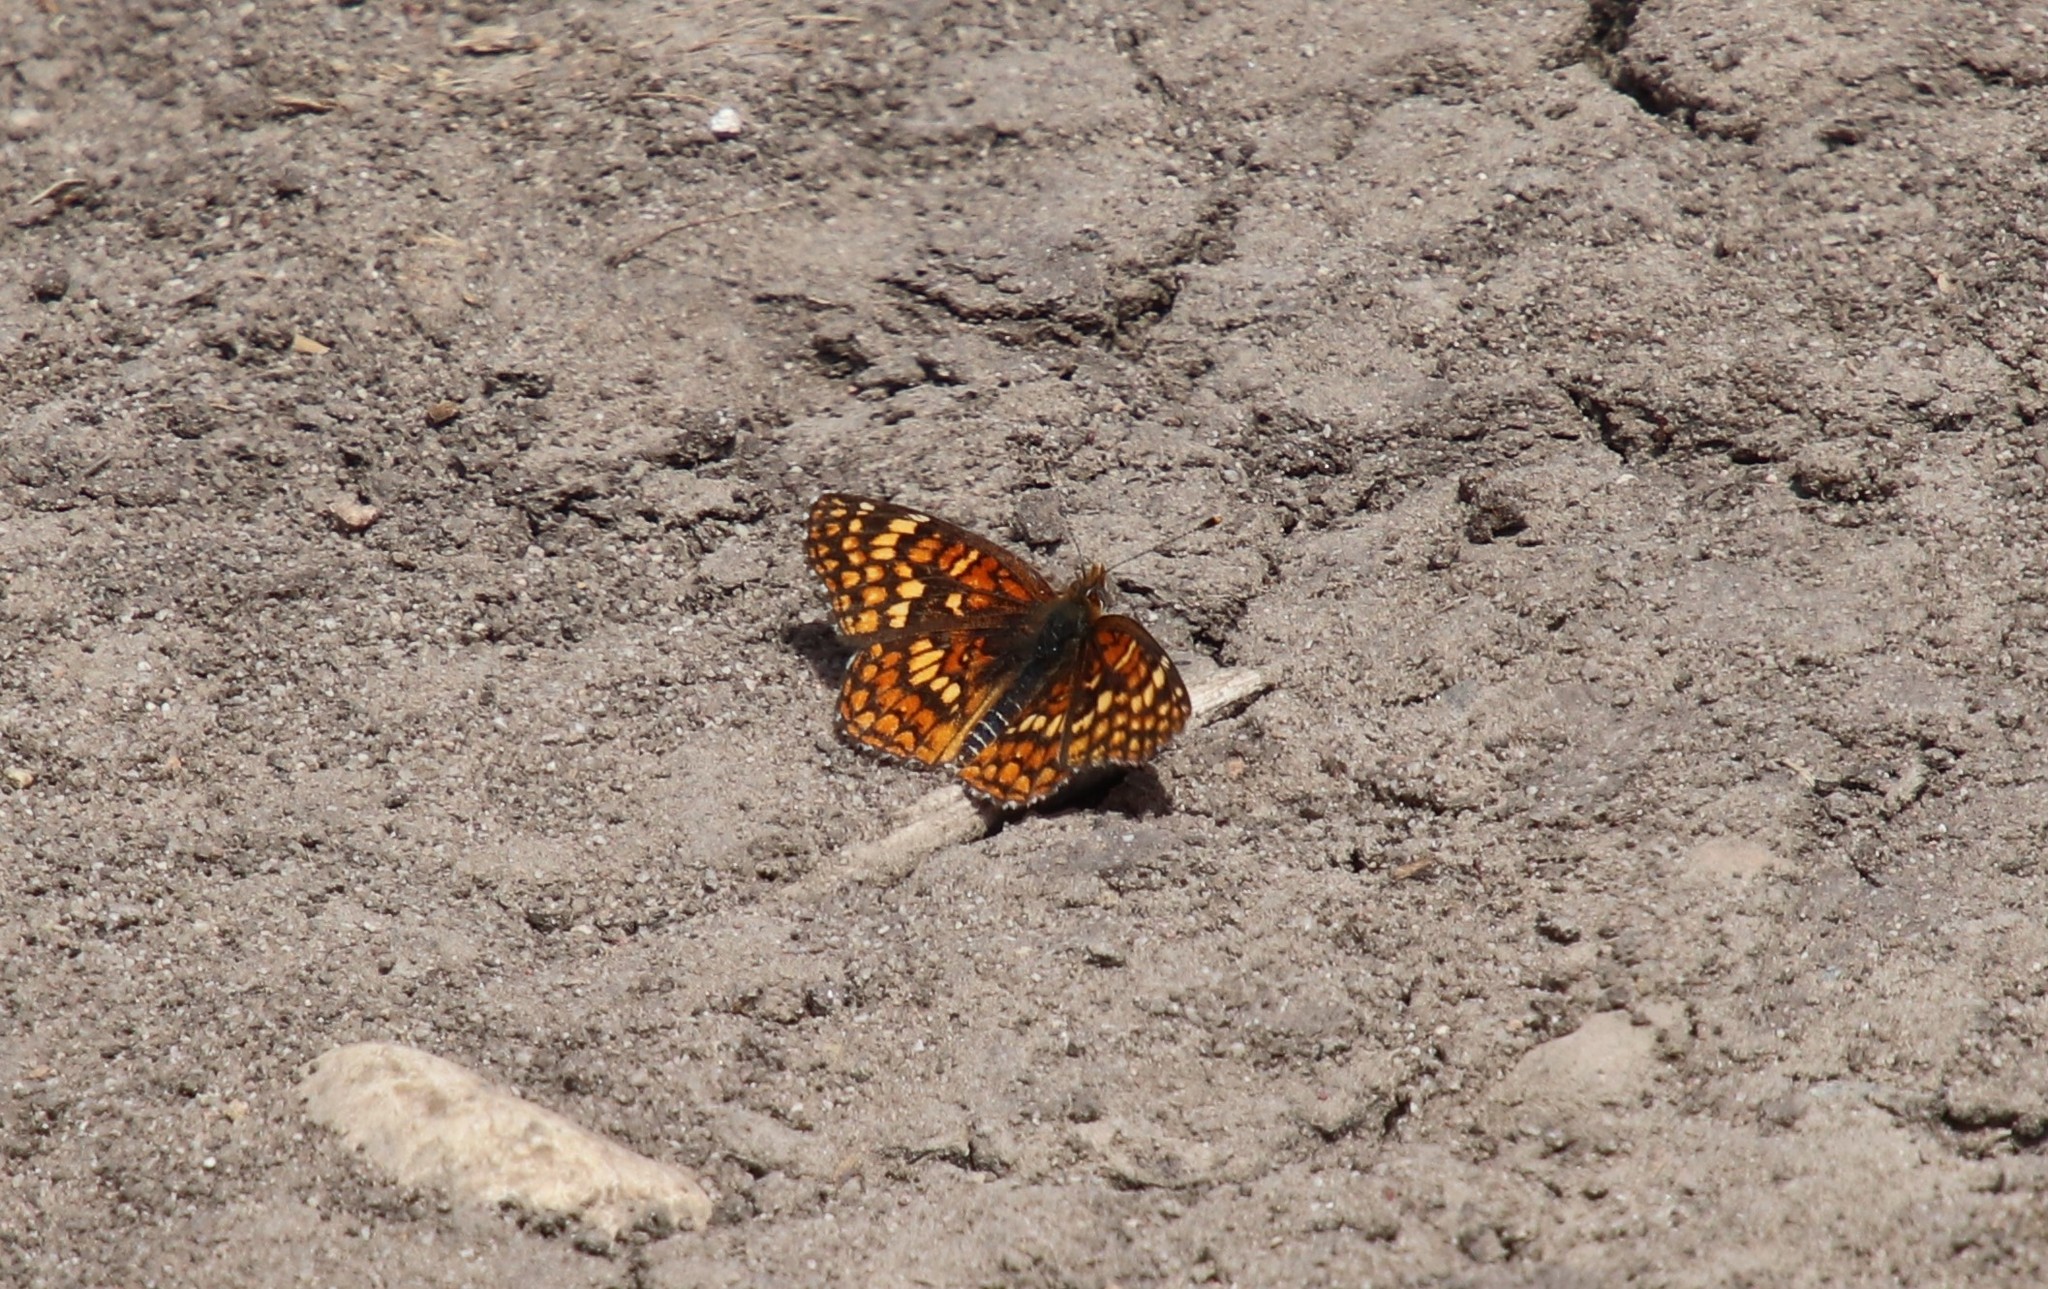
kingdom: Animalia
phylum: Arthropoda
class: Insecta
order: Lepidoptera
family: Nymphalidae
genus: Chlosyne
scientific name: Chlosyne gabbii
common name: Gabb's checkerspot
